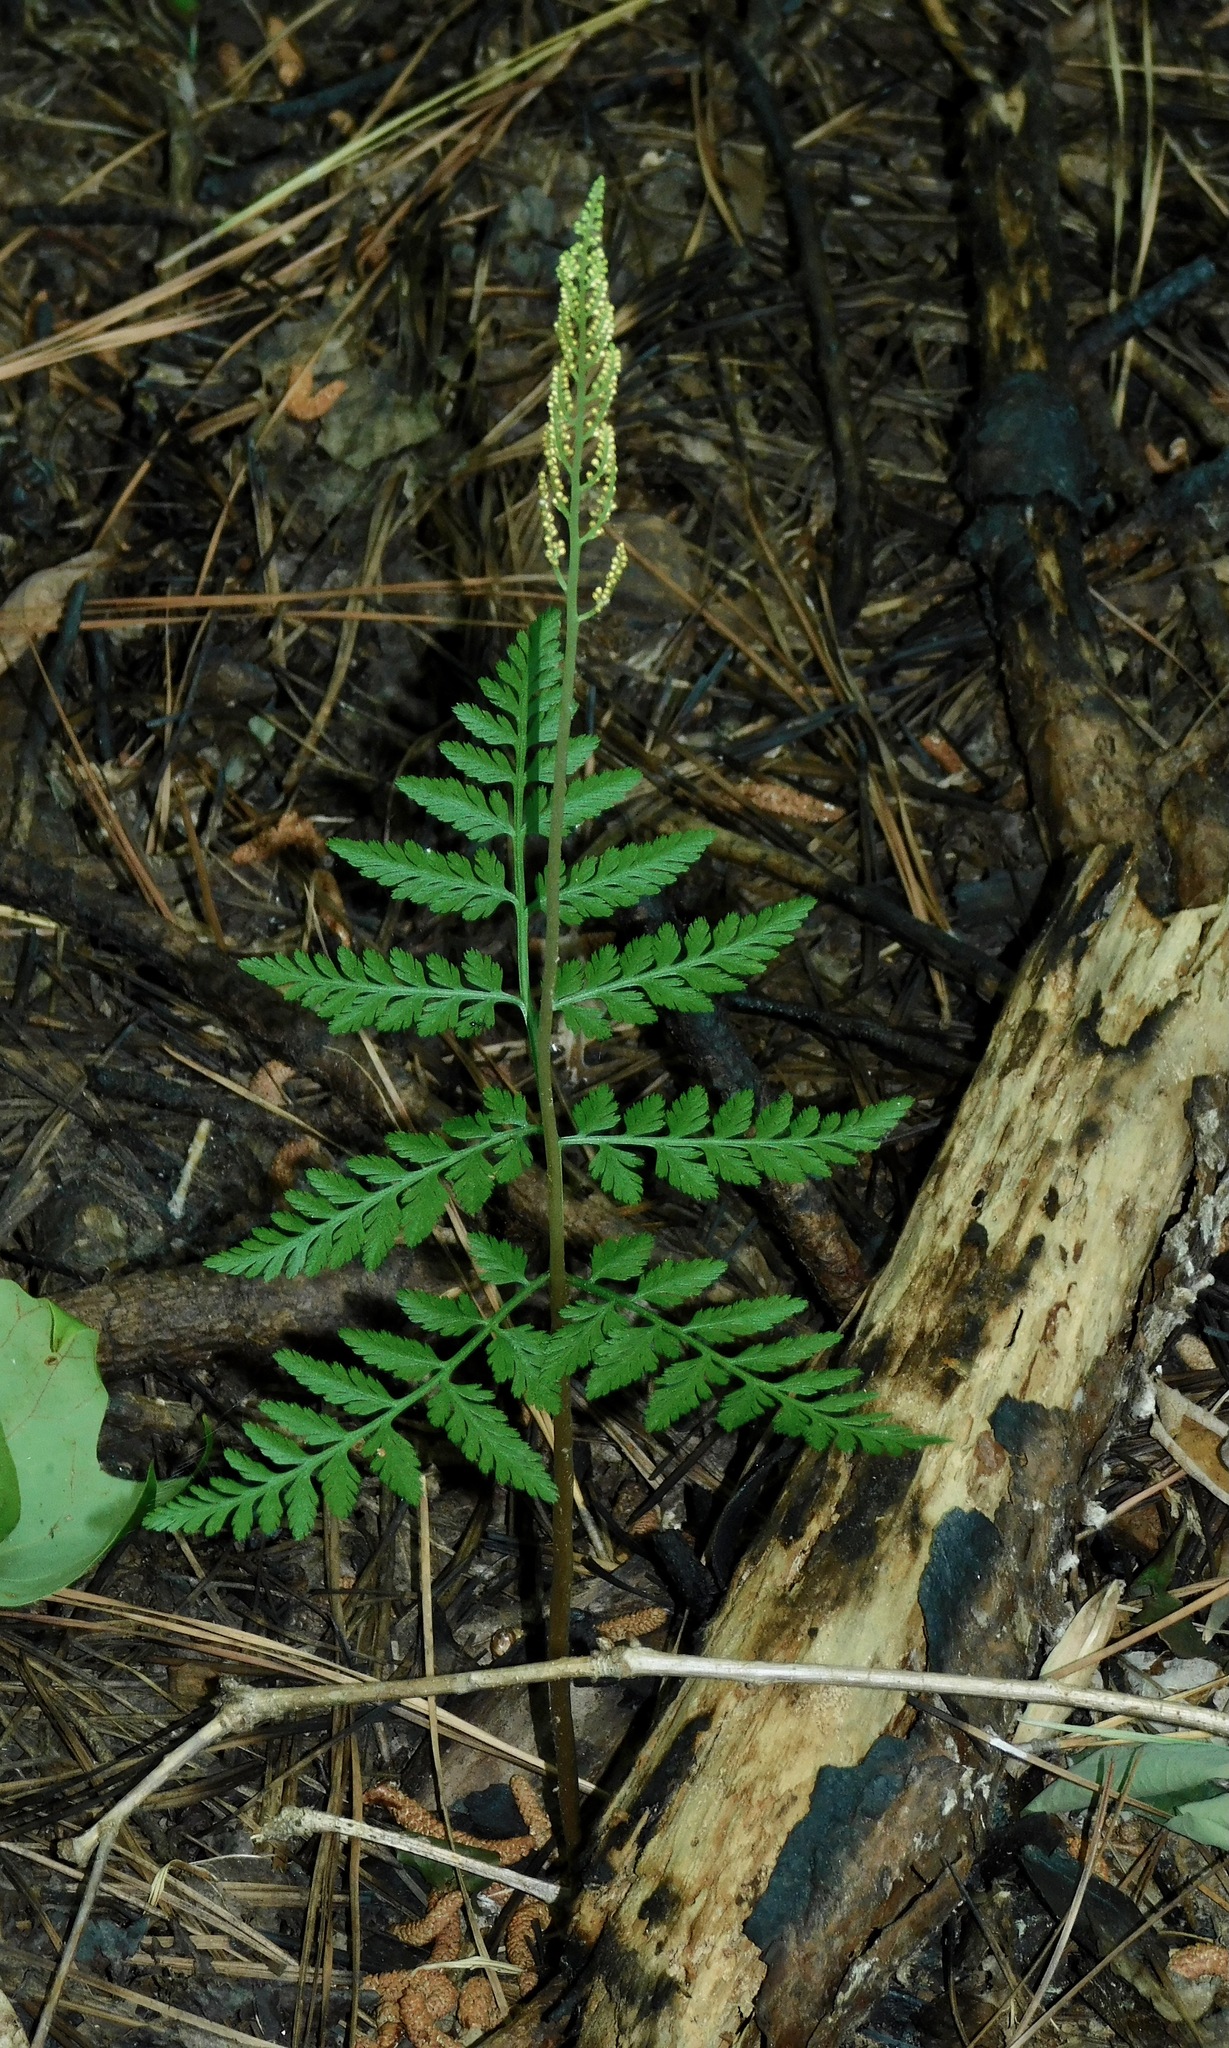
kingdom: Plantae
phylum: Tracheophyta
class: Polypodiopsida
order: Ophioglossales
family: Ophioglossaceae
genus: Botrypus
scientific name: Botrypus virginianus
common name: Common grapefern
